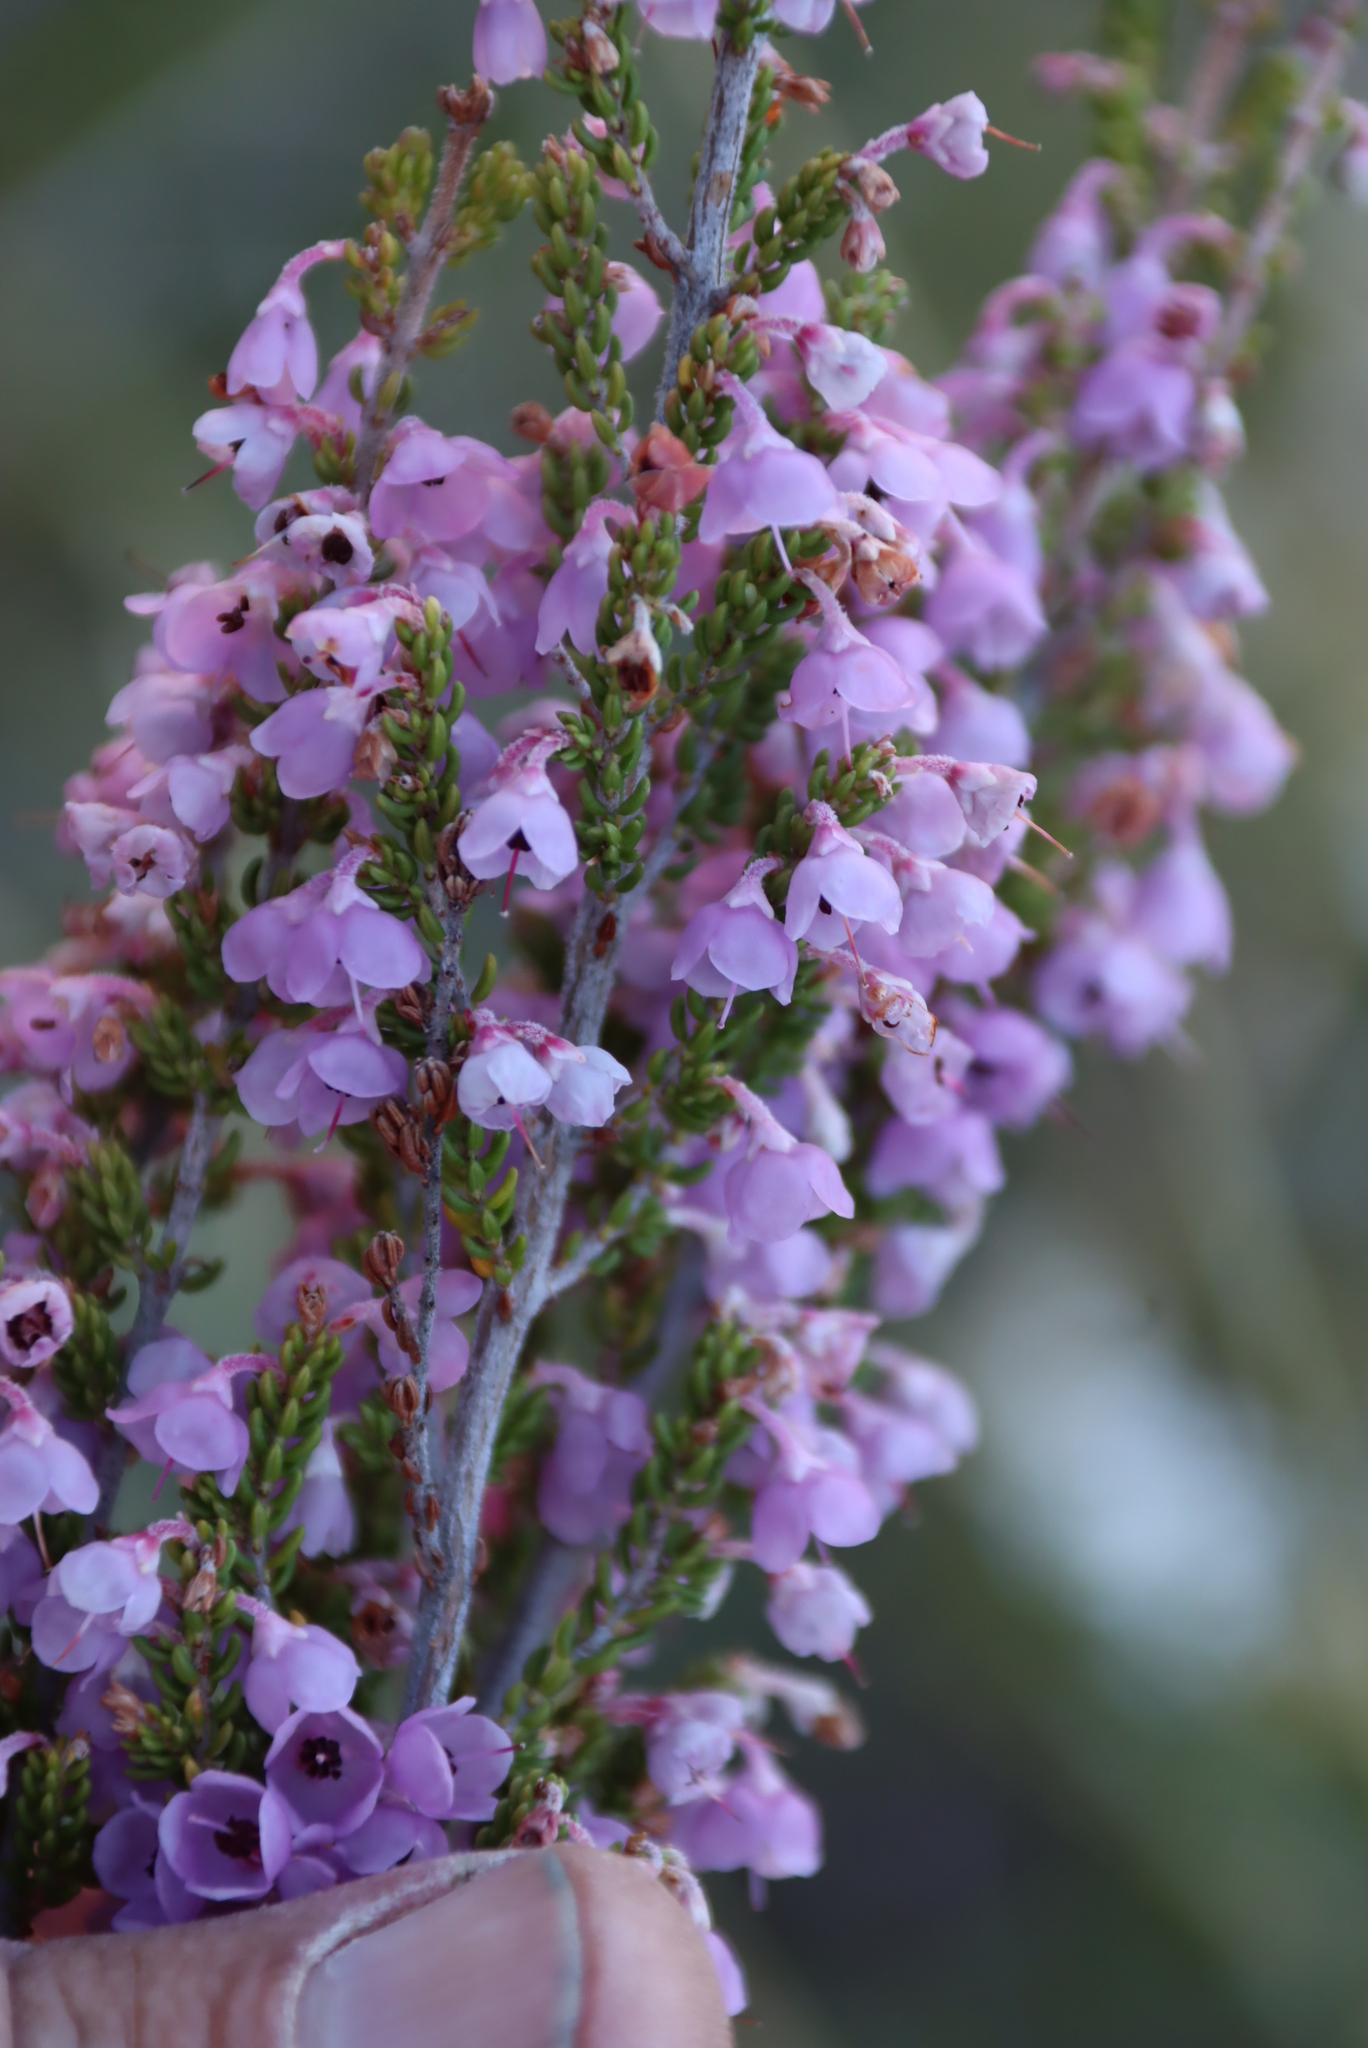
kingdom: Plantae
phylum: Tracheophyta
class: Magnoliopsida
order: Ericales
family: Ericaceae
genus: Erica
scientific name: Erica newdigatei
